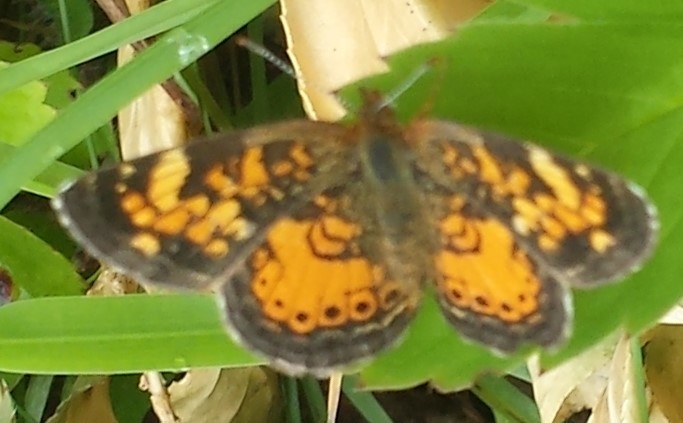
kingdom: Animalia
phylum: Arthropoda
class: Insecta
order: Lepidoptera
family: Nymphalidae
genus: Phyciodes
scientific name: Phyciodes tharos
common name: Pearl crescent
